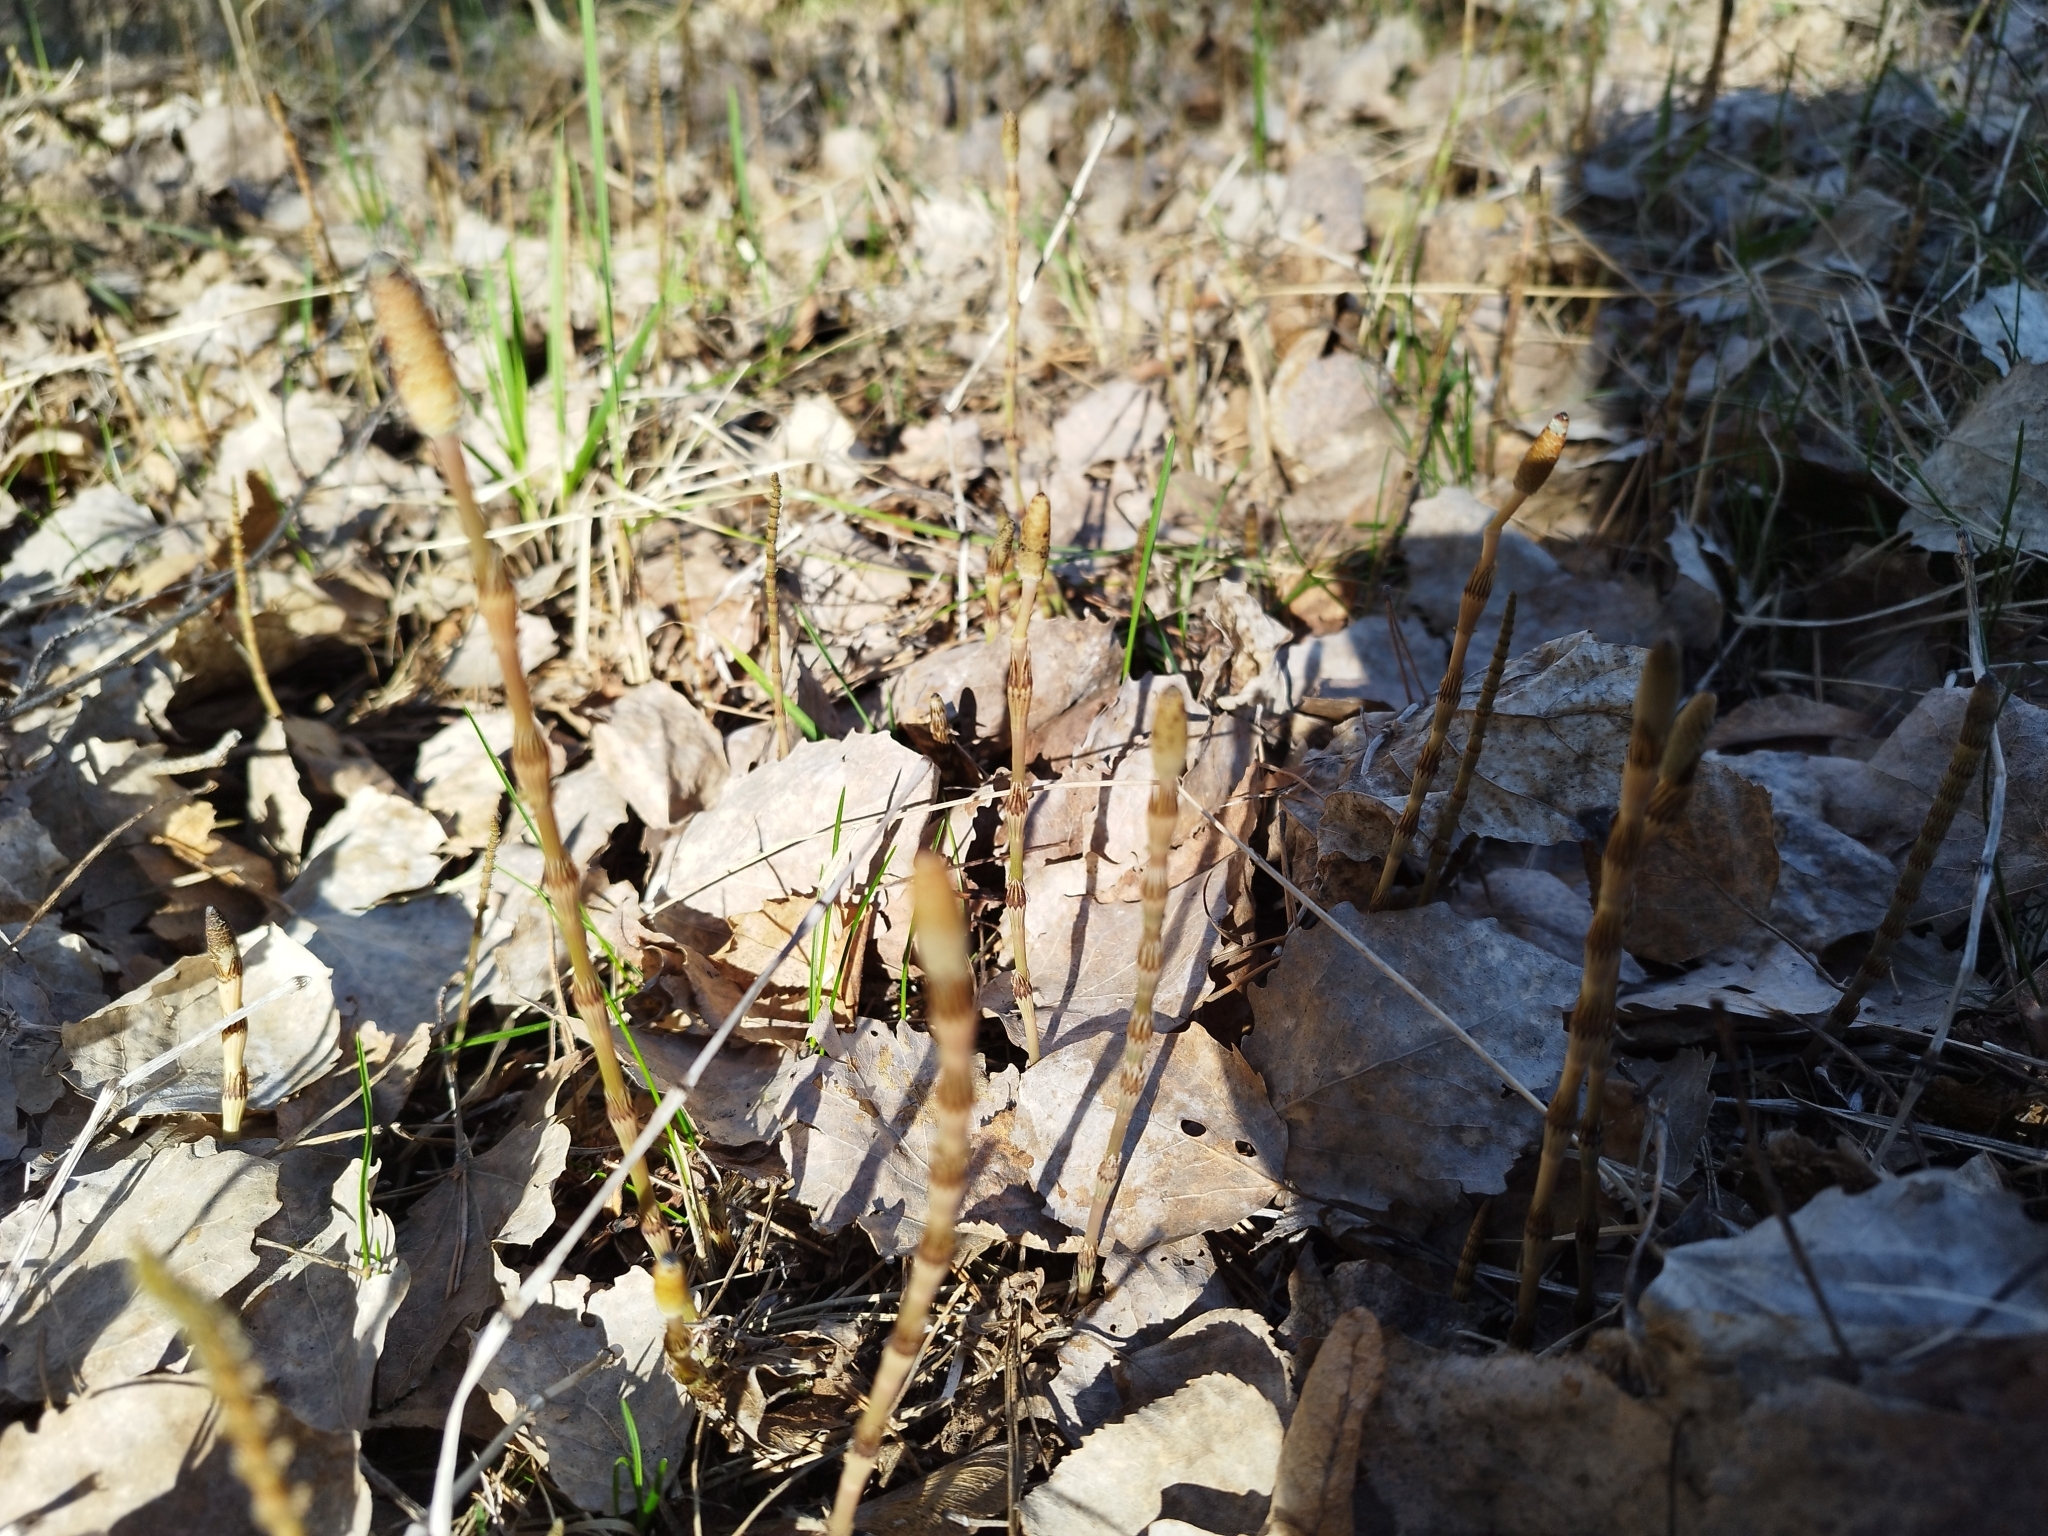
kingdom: Plantae
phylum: Tracheophyta
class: Polypodiopsida
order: Equisetales
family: Equisetaceae
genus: Equisetum
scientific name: Equisetum pratense
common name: Meadow horsetail
